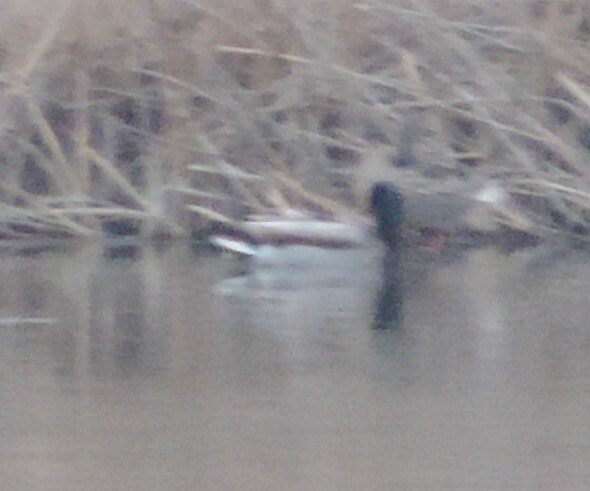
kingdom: Animalia
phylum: Chordata
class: Aves
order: Anseriformes
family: Anatidae
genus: Anas
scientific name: Anas platyrhynchos
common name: Mallard
